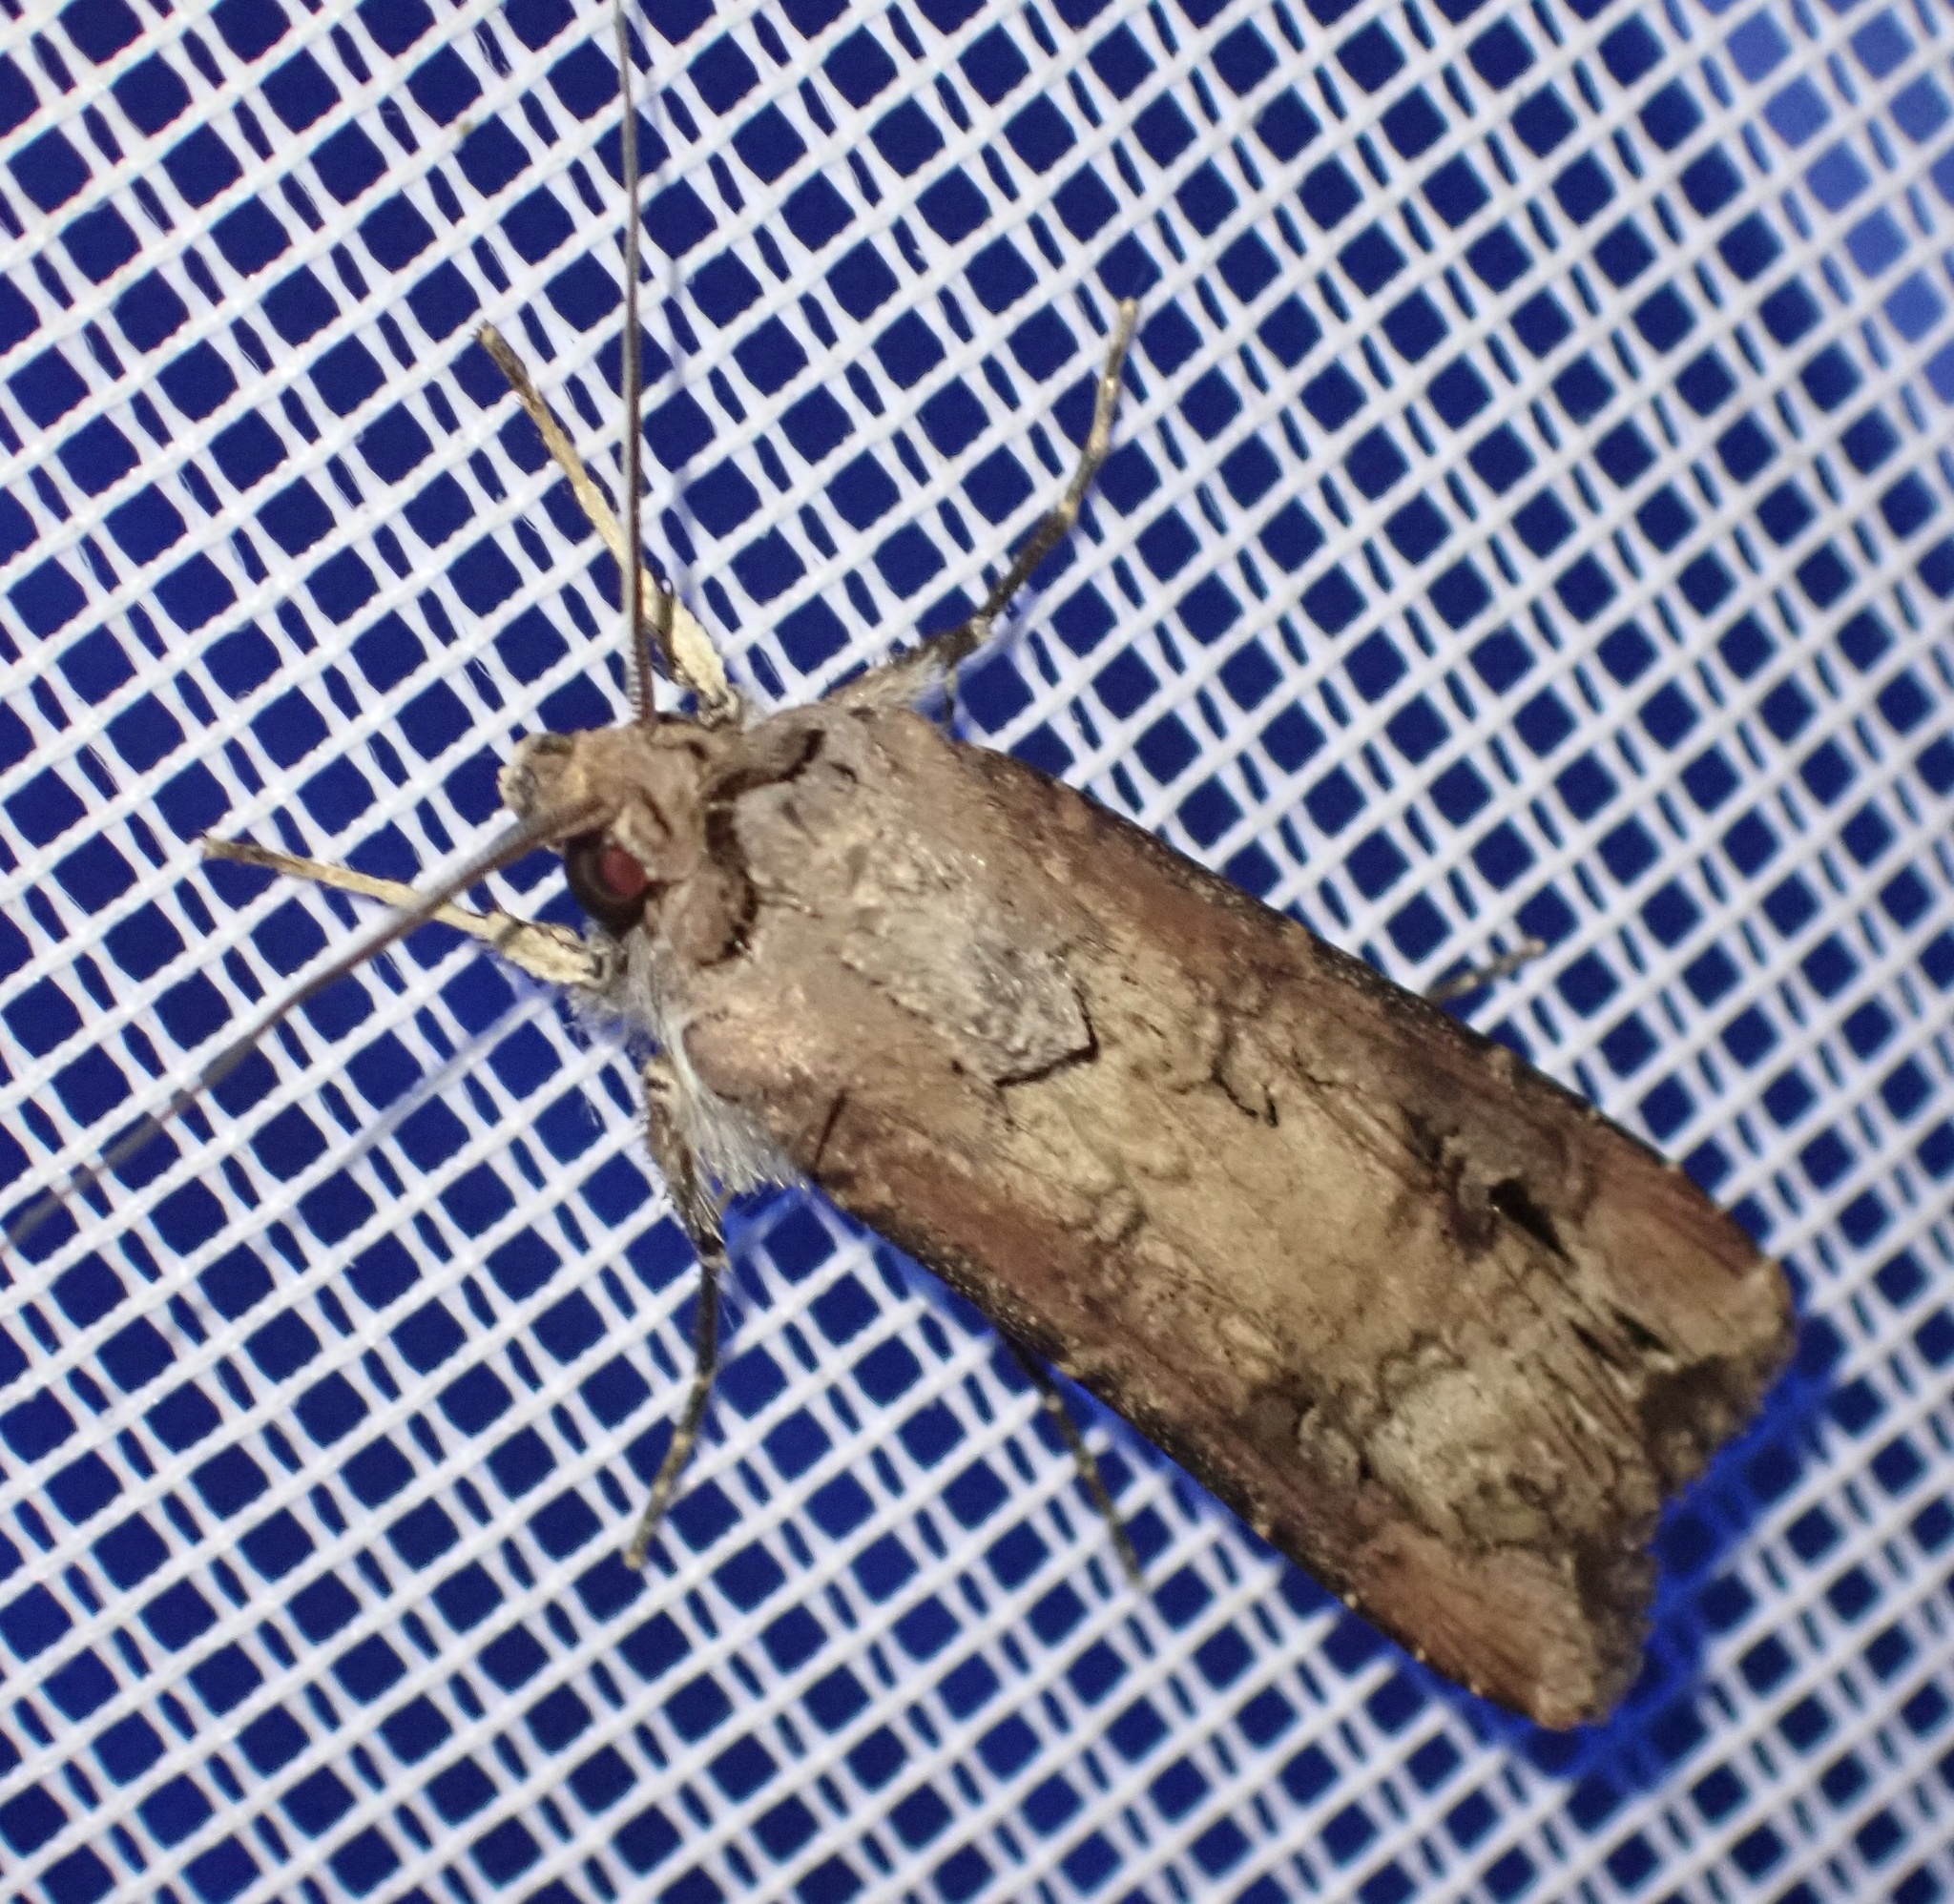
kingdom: Animalia
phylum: Arthropoda
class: Insecta
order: Lepidoptera
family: Noctuidae
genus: Agrotis
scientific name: Agrotis ipsilon
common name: Dark sword-grass
